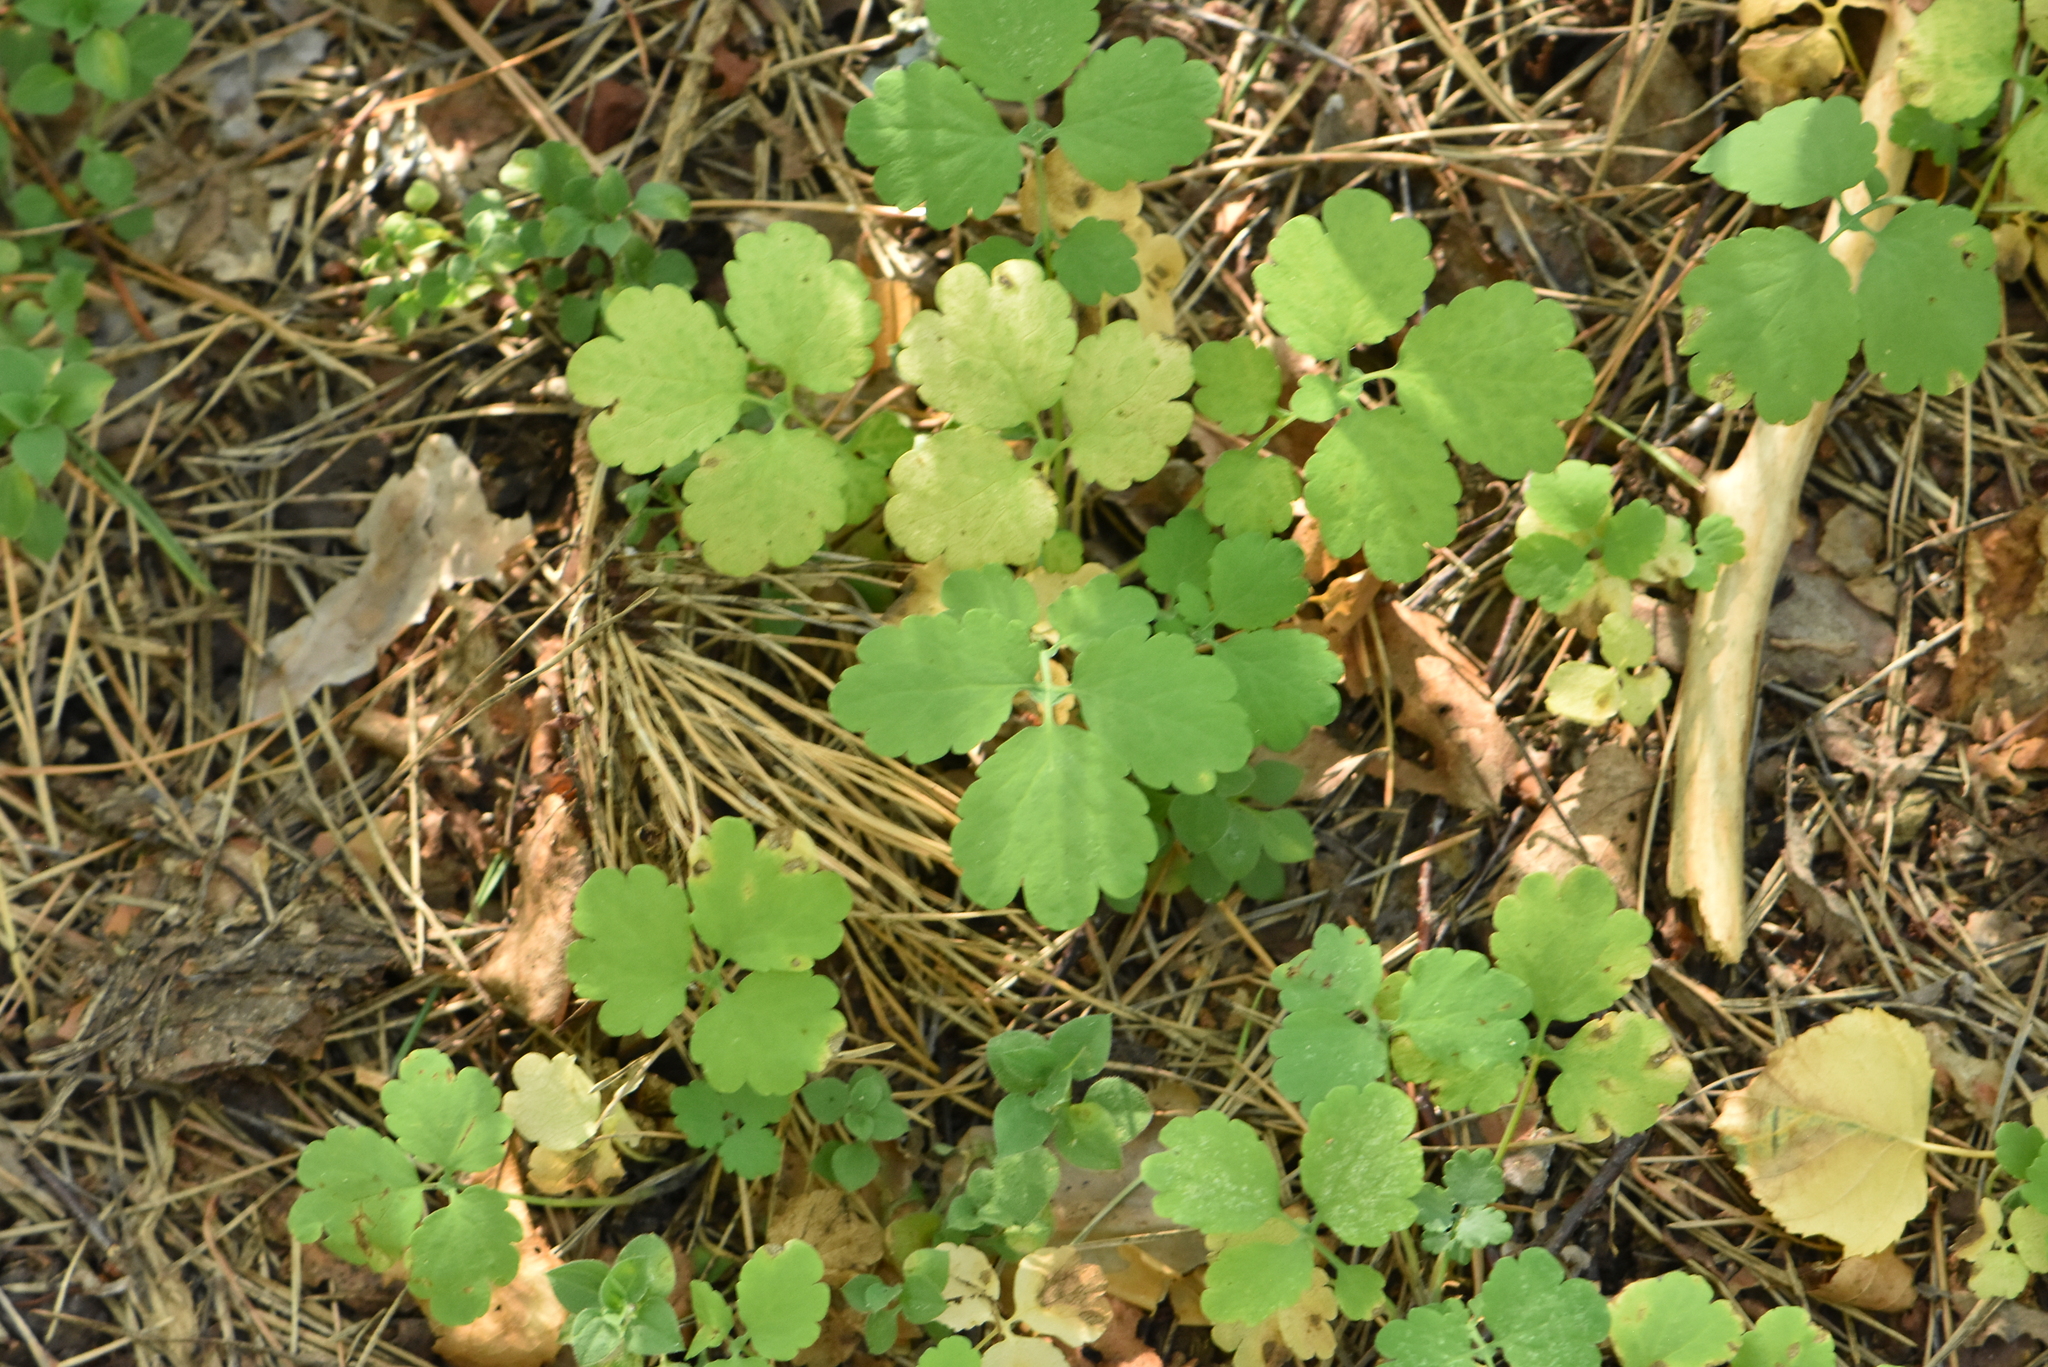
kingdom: Plantae
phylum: Tracheophyta
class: Magnoliopsida
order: Ranunculales
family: Papaveraceae
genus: Chelidonium
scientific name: Chelidonium majus
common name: Greater celandine
